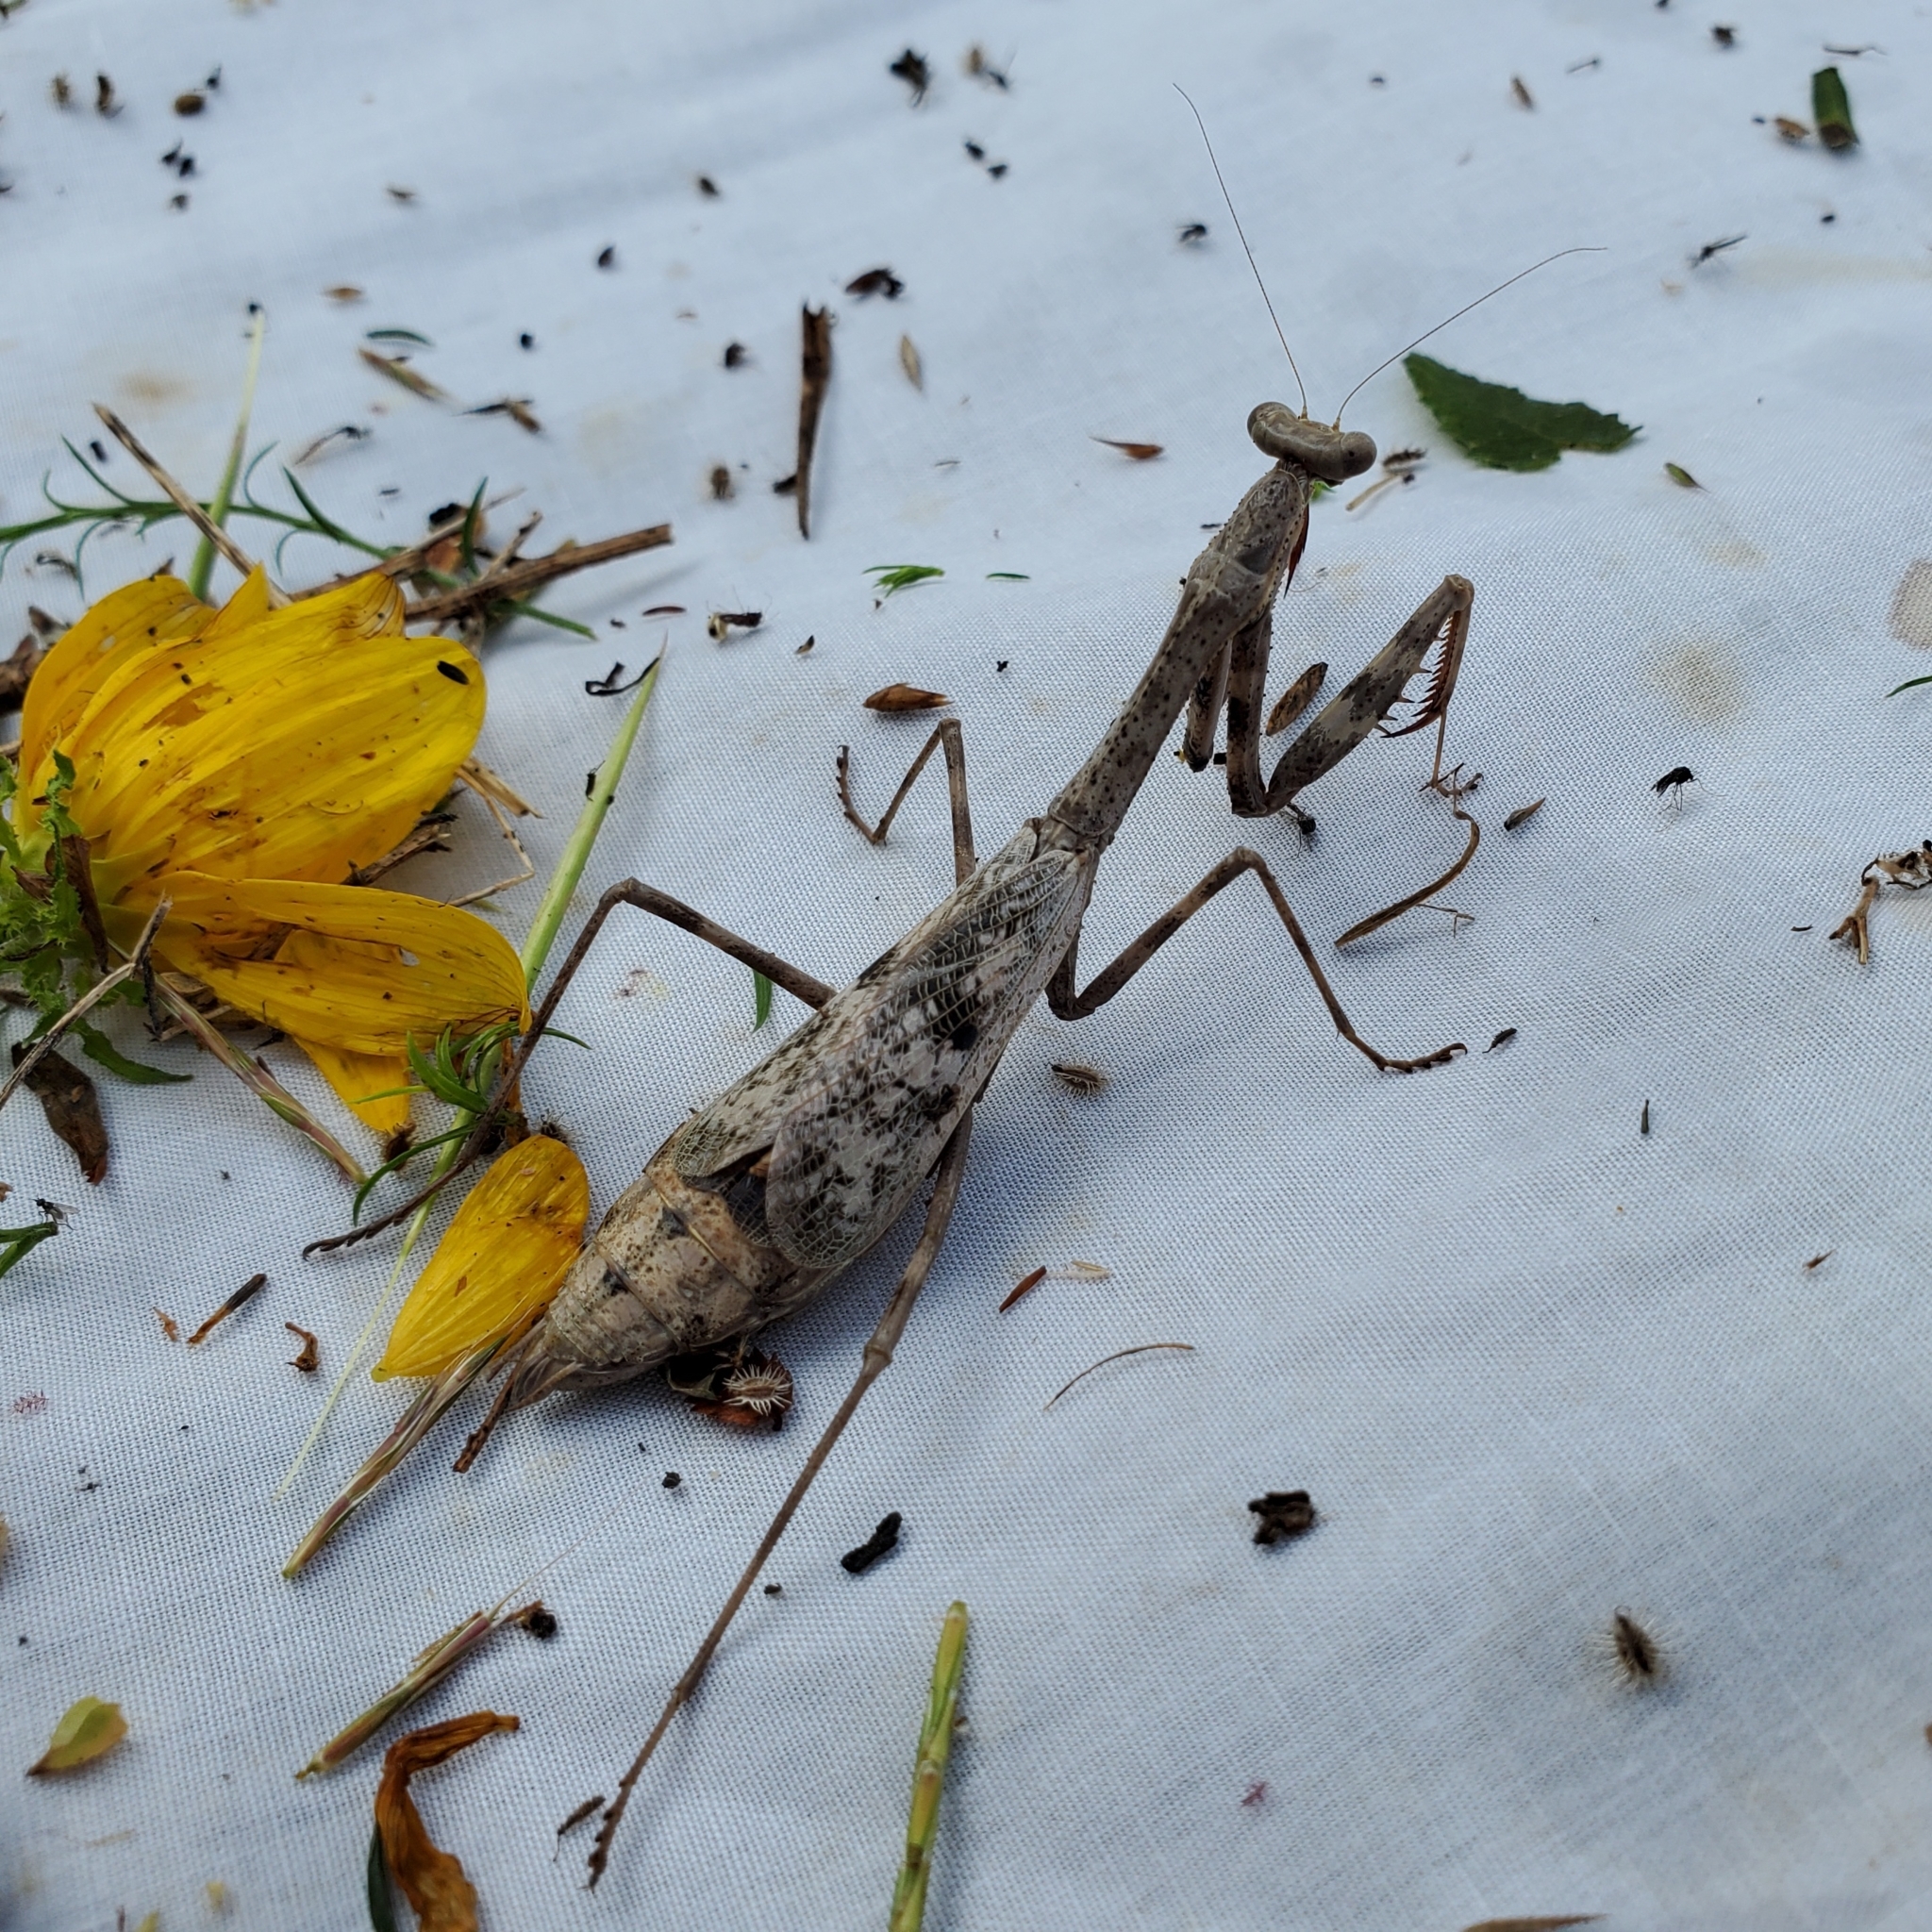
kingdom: Animalia
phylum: Arthropoda
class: Insecta
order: Mantodea
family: Mantidae
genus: Stagmomantis
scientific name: Stagmomantis carolina
